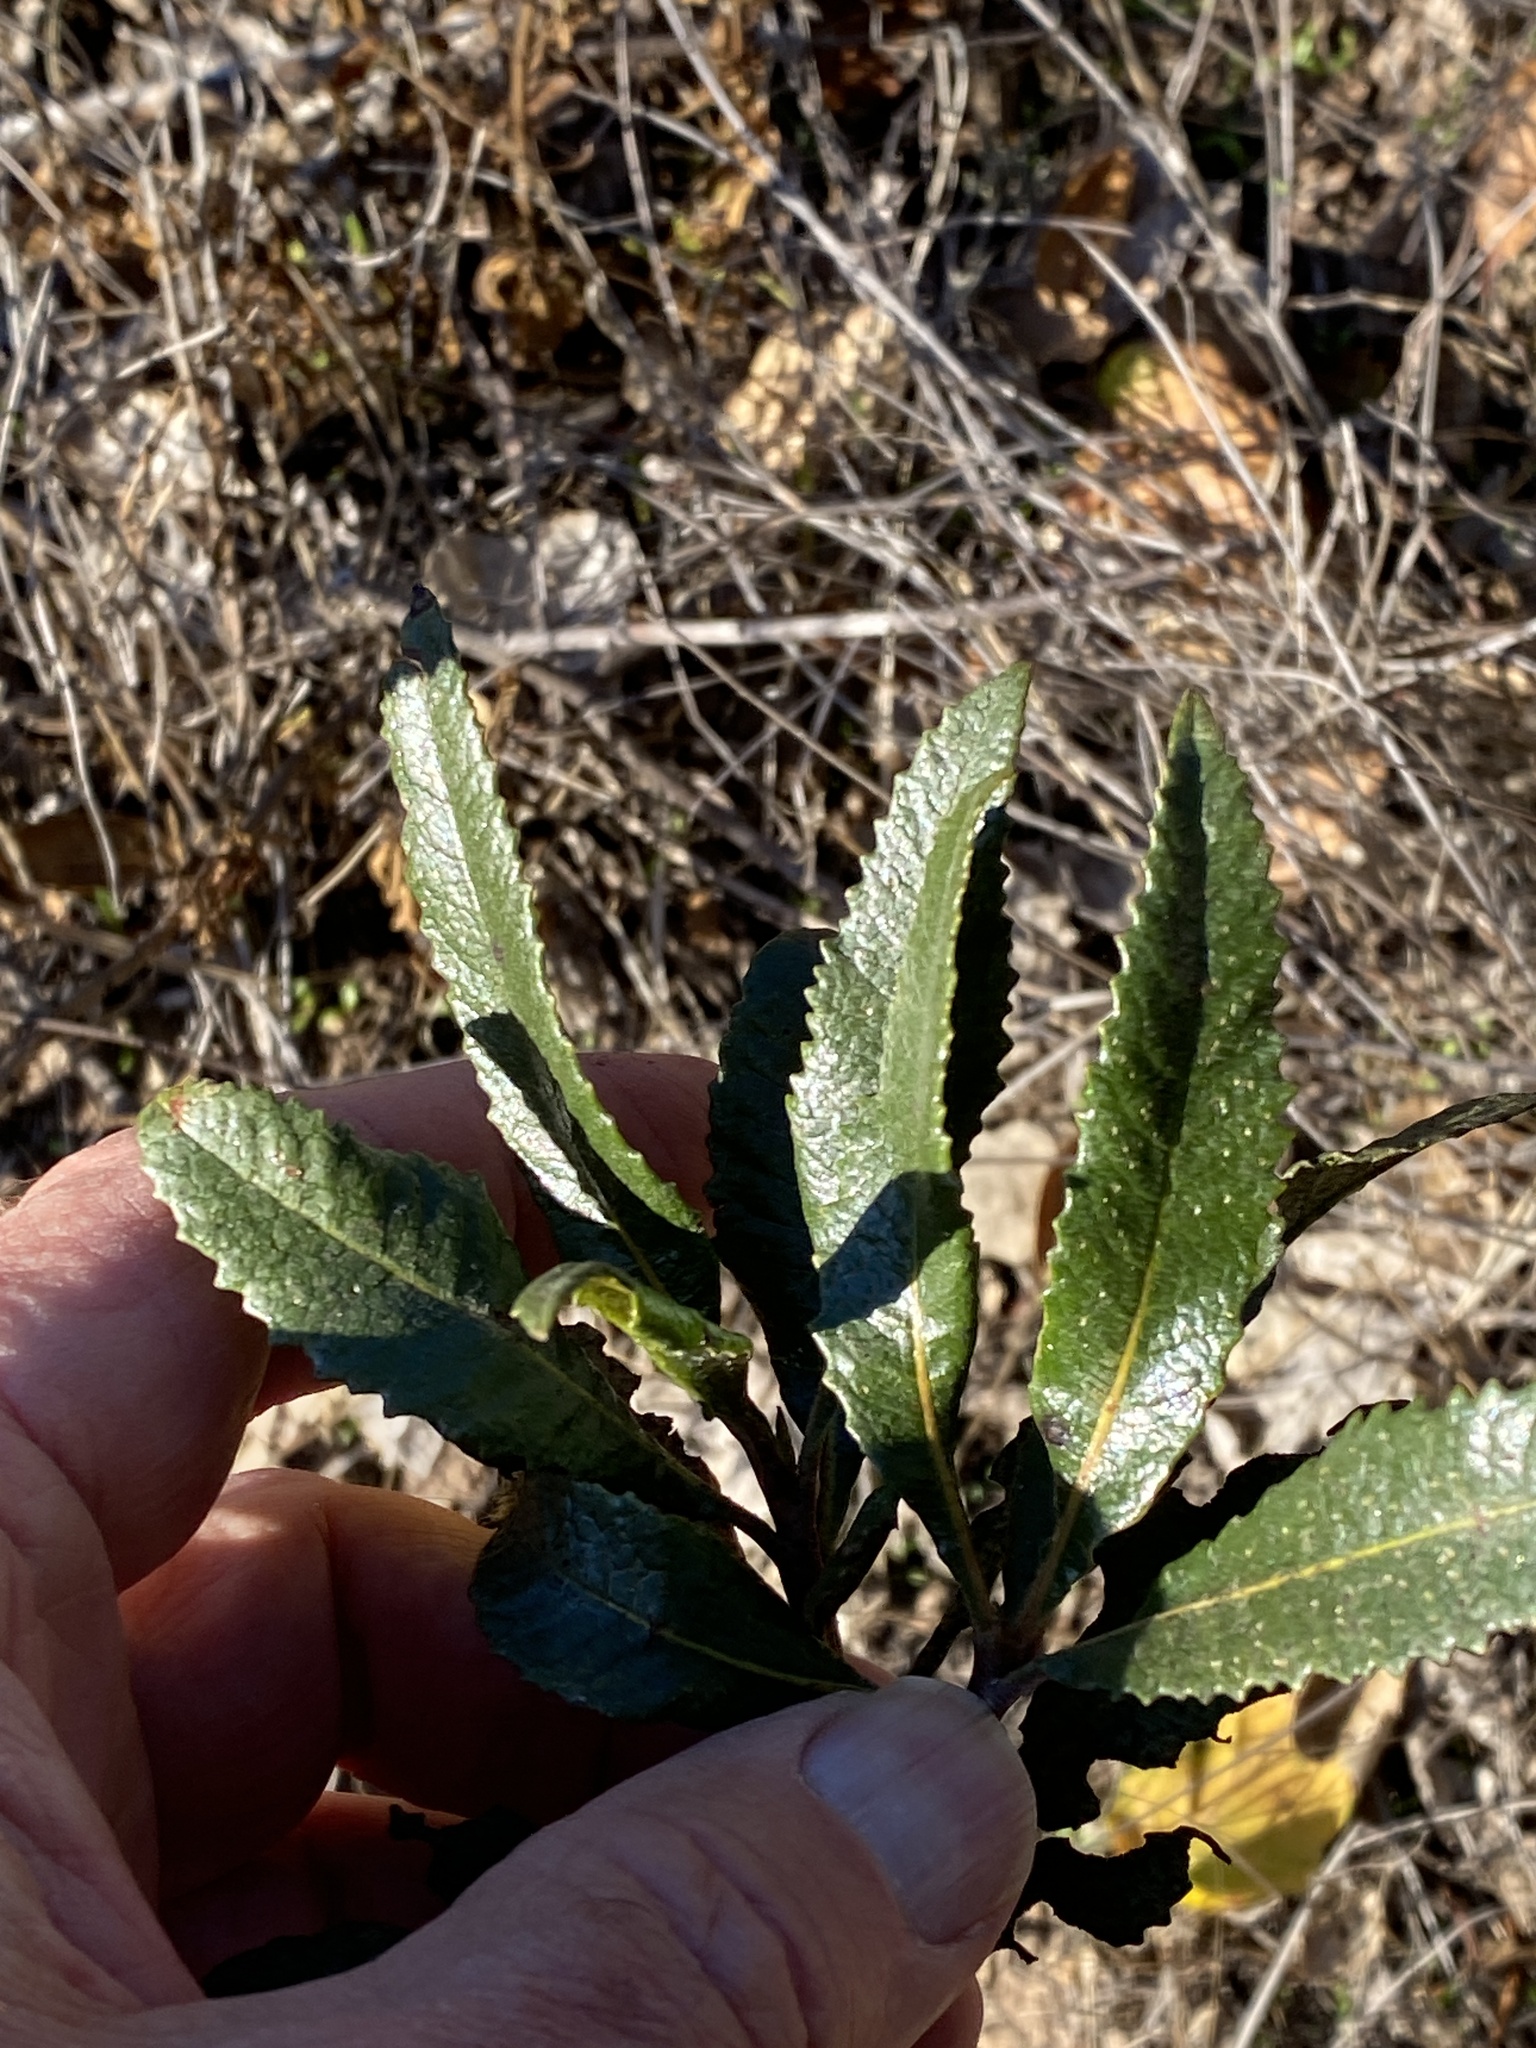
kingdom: Plantae
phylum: Tracheophyta
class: Magnoliopsida
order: Boraginales
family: Namaceae
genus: Eriodictyon
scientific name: Eriodictyon californicum
